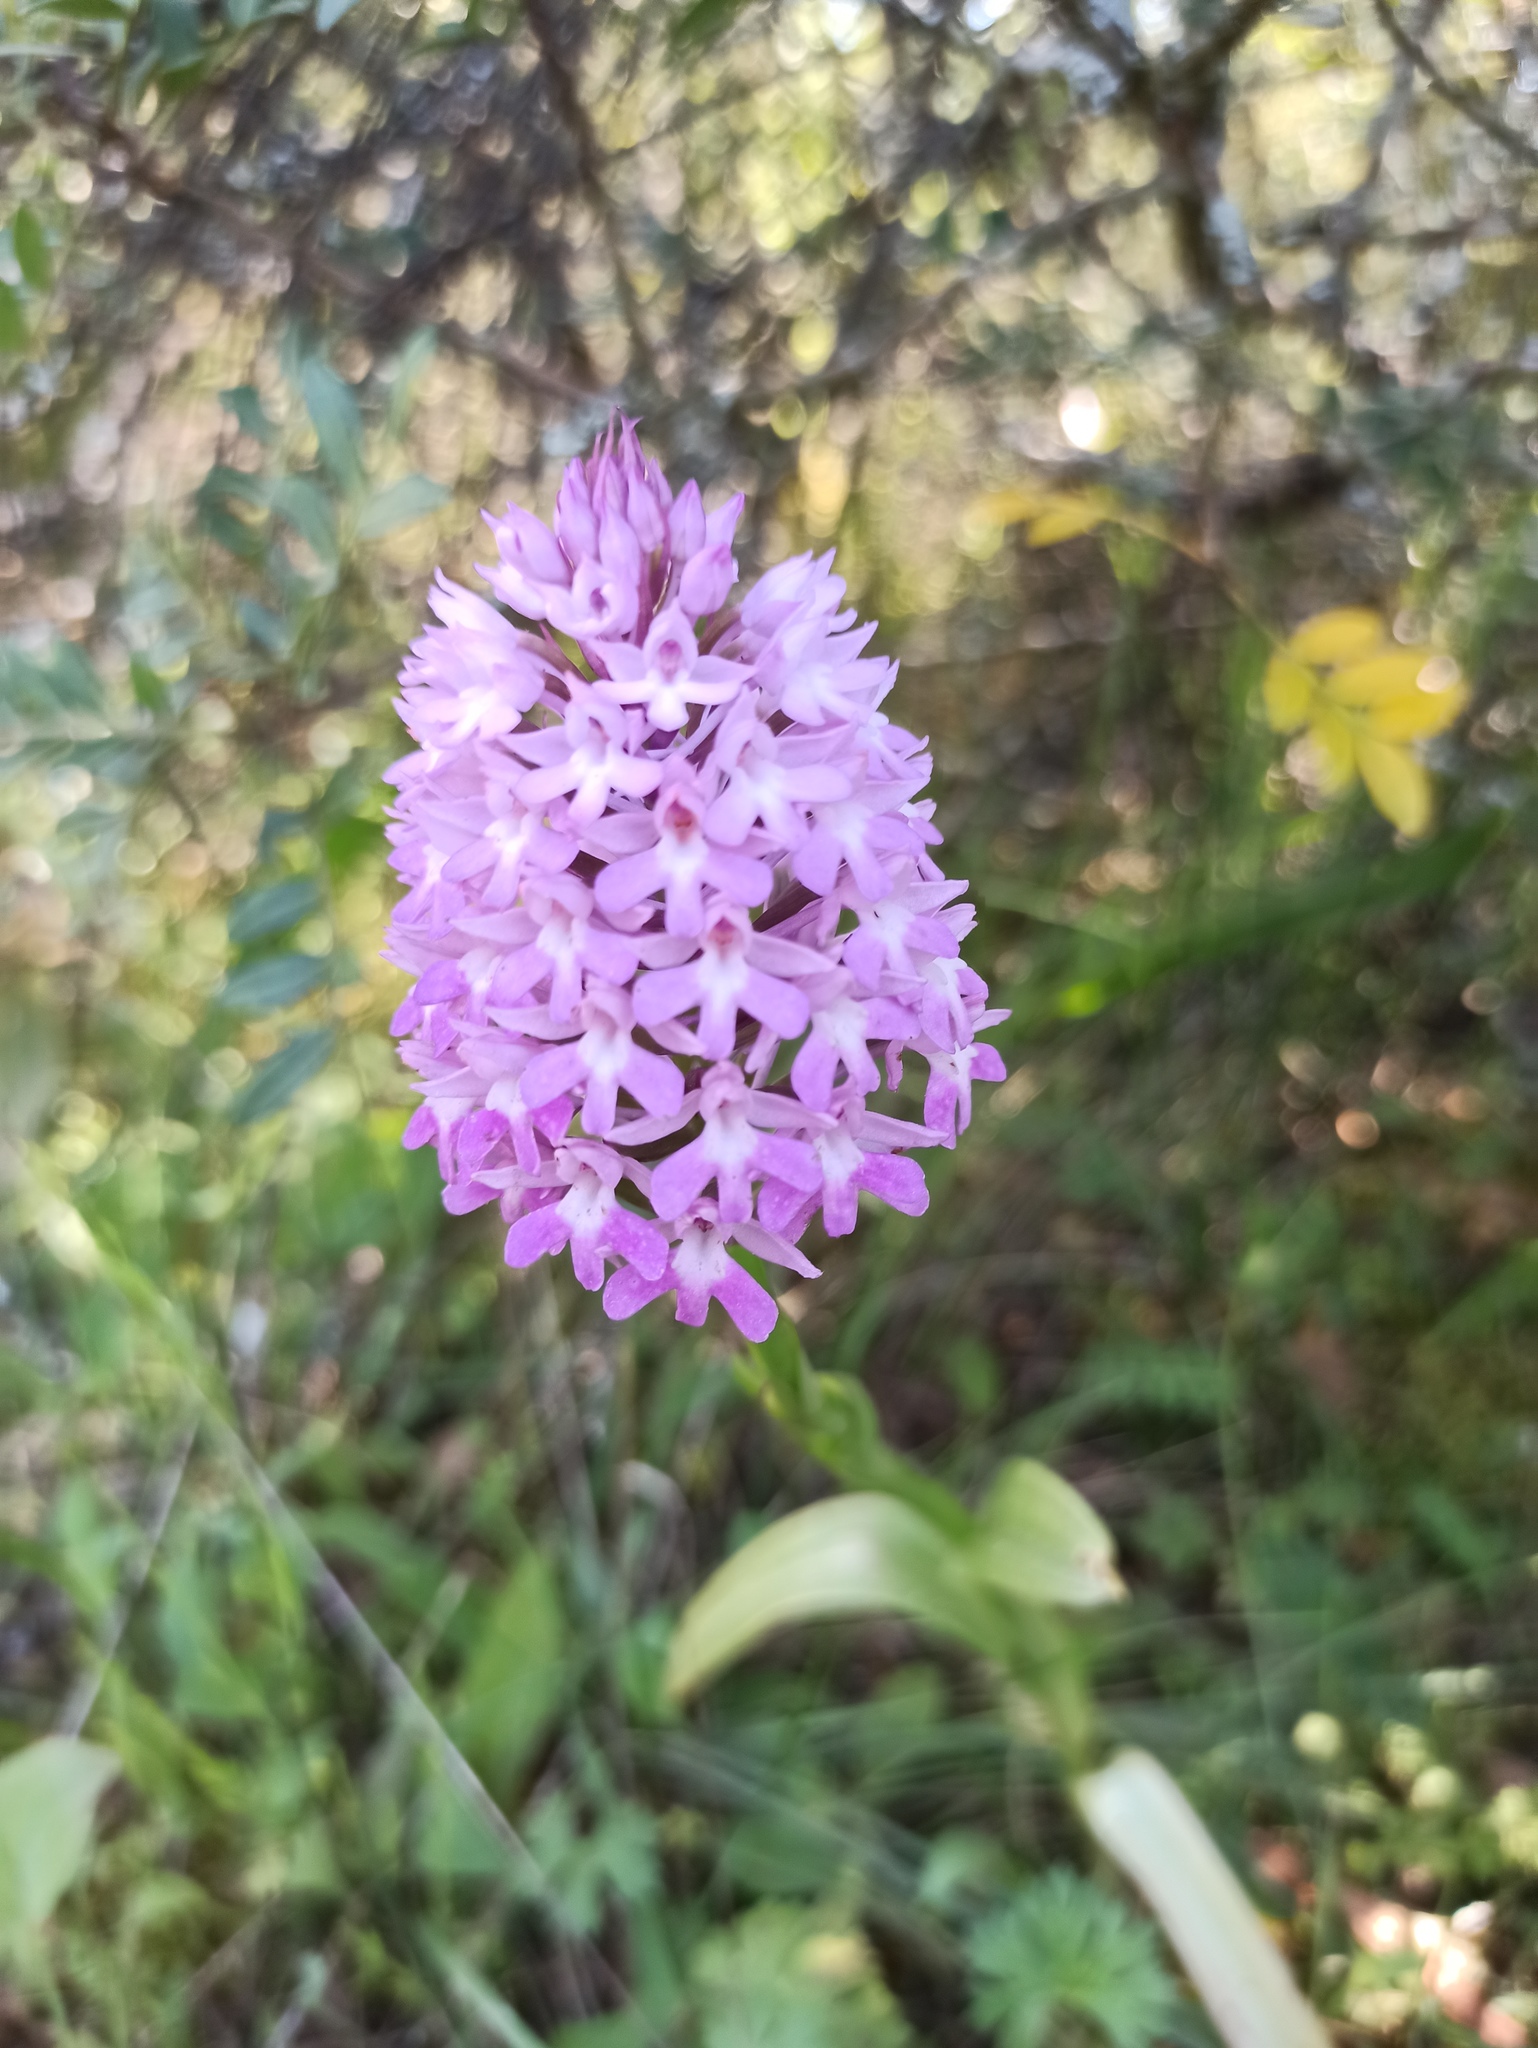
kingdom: Plantae
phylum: Tracheophyta
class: Liliopsida
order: Asparagales
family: Orchidaceae
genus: Anacamptis
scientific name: Anacamptis pyramidalis
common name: Pyramidal orchid
